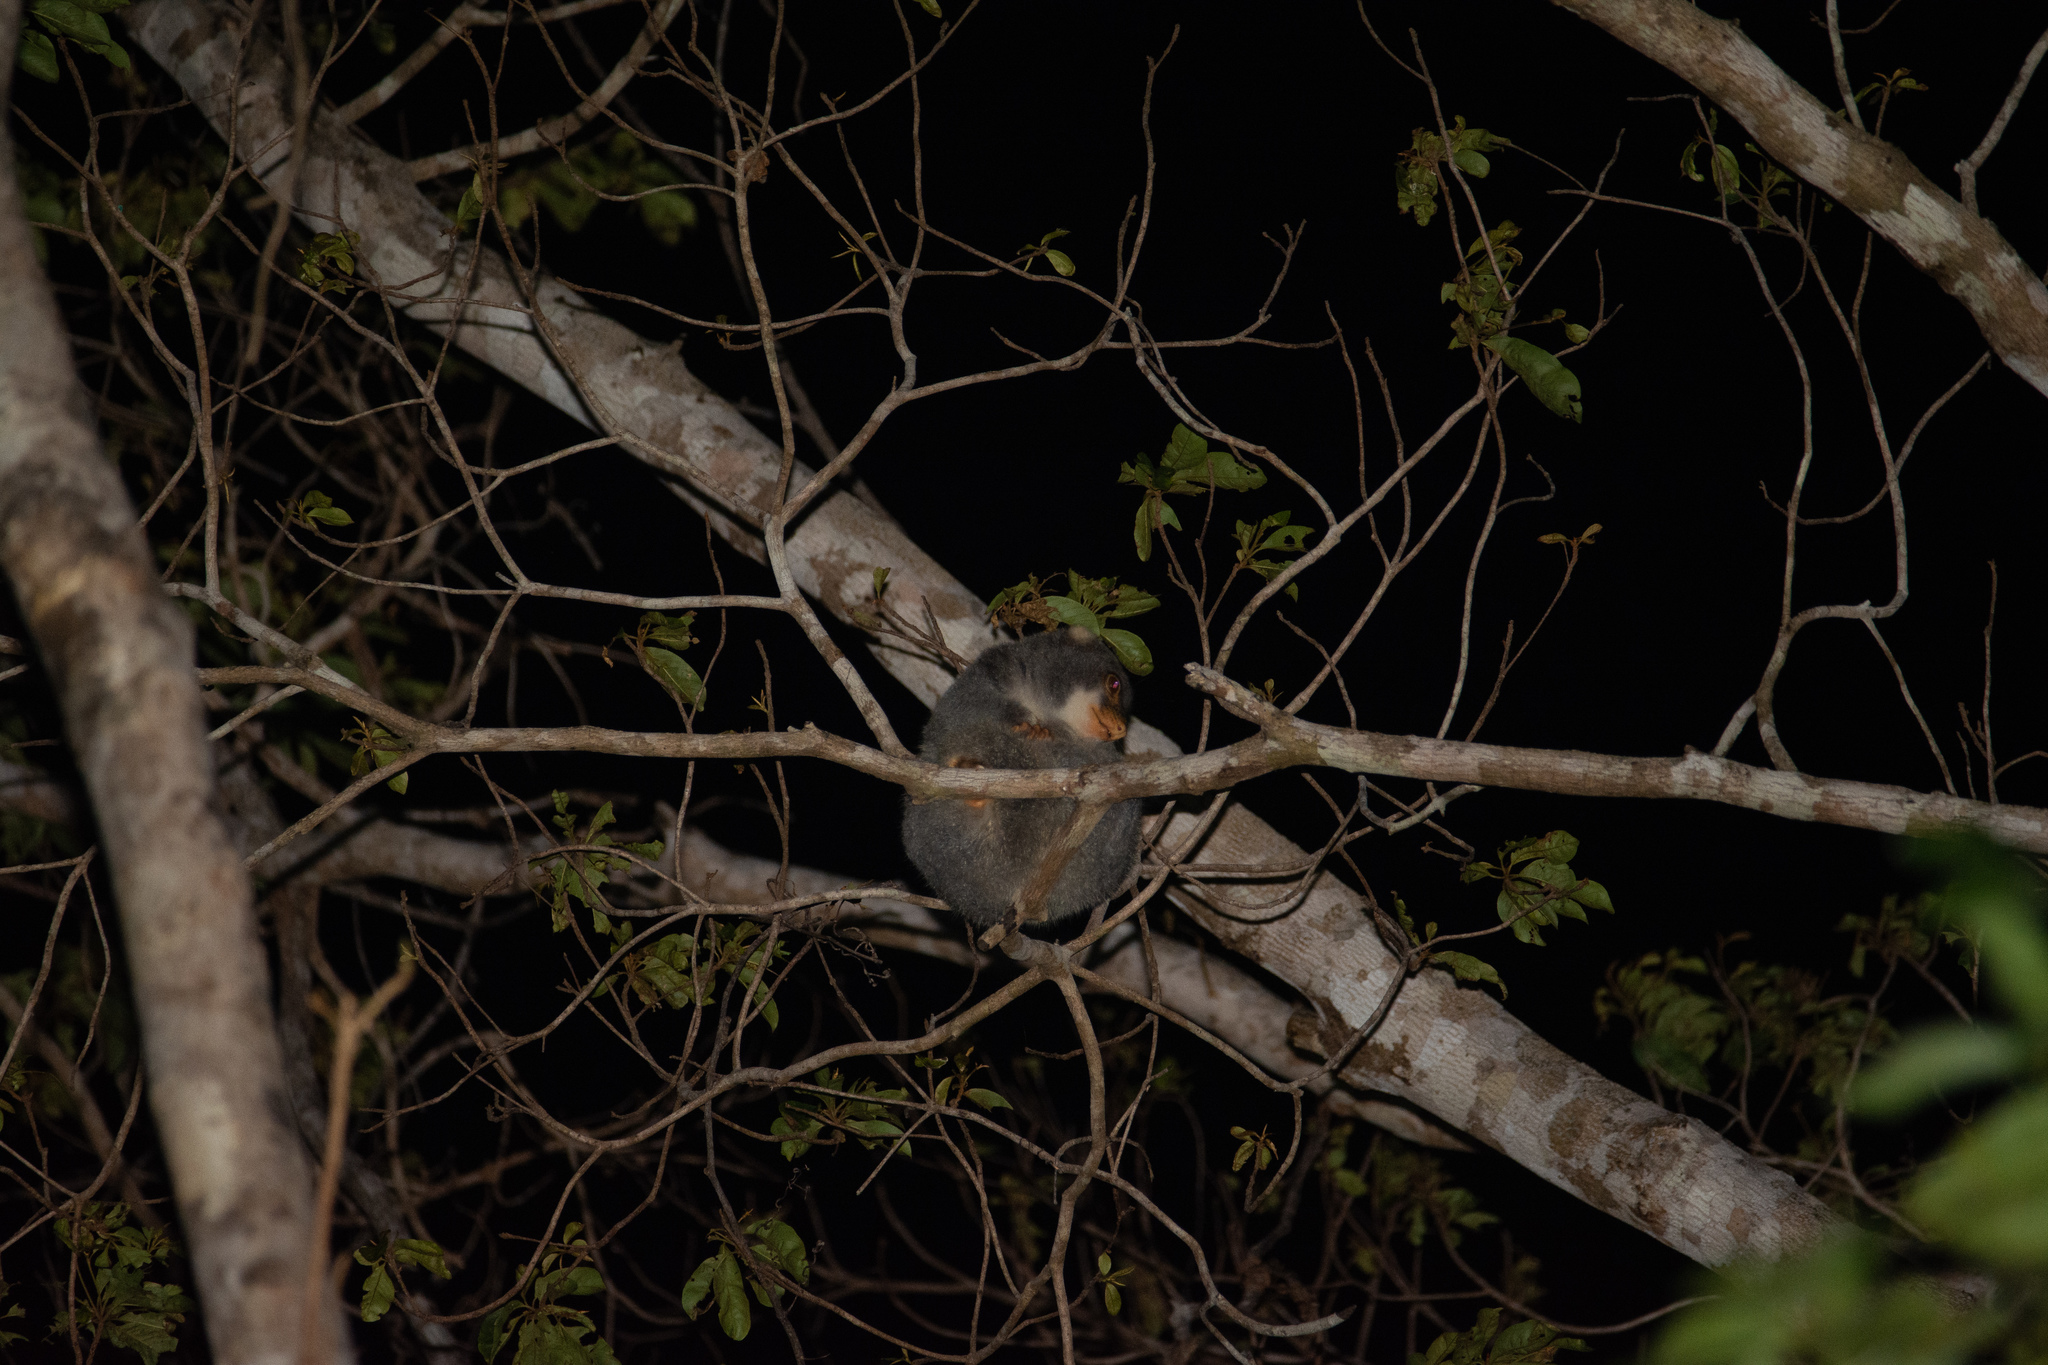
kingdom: Animalia
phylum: Chordata
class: Mammalia
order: Diprotodontia
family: Phalangeridae
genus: Spilocuscus
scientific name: Spilocuscus maculatus
